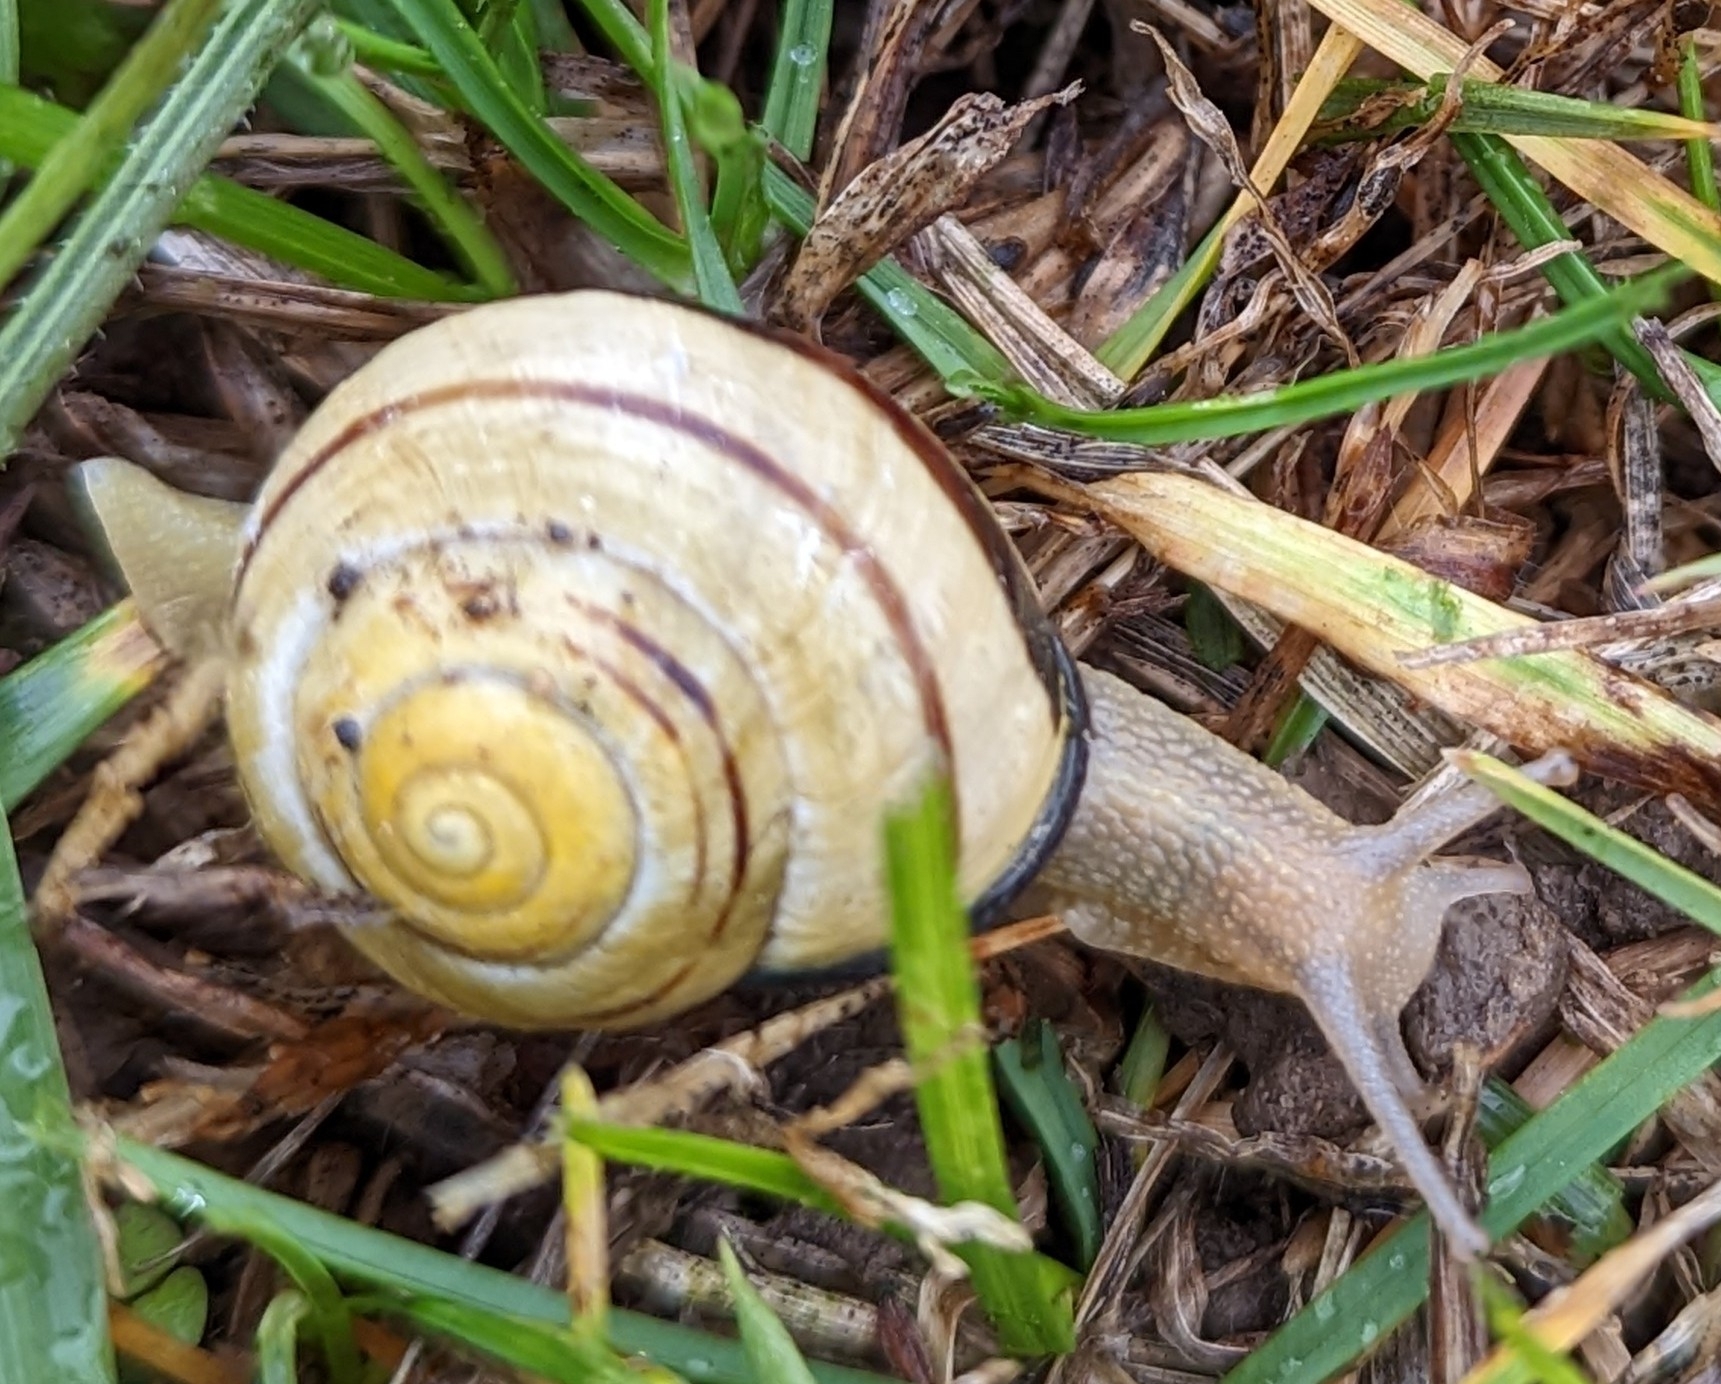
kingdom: Animalia
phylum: Mollusca
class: Gastropoda
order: Stylommatophora
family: Helicidae
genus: Cepaea
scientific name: Cepaea nemoralis
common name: Grovesnail
